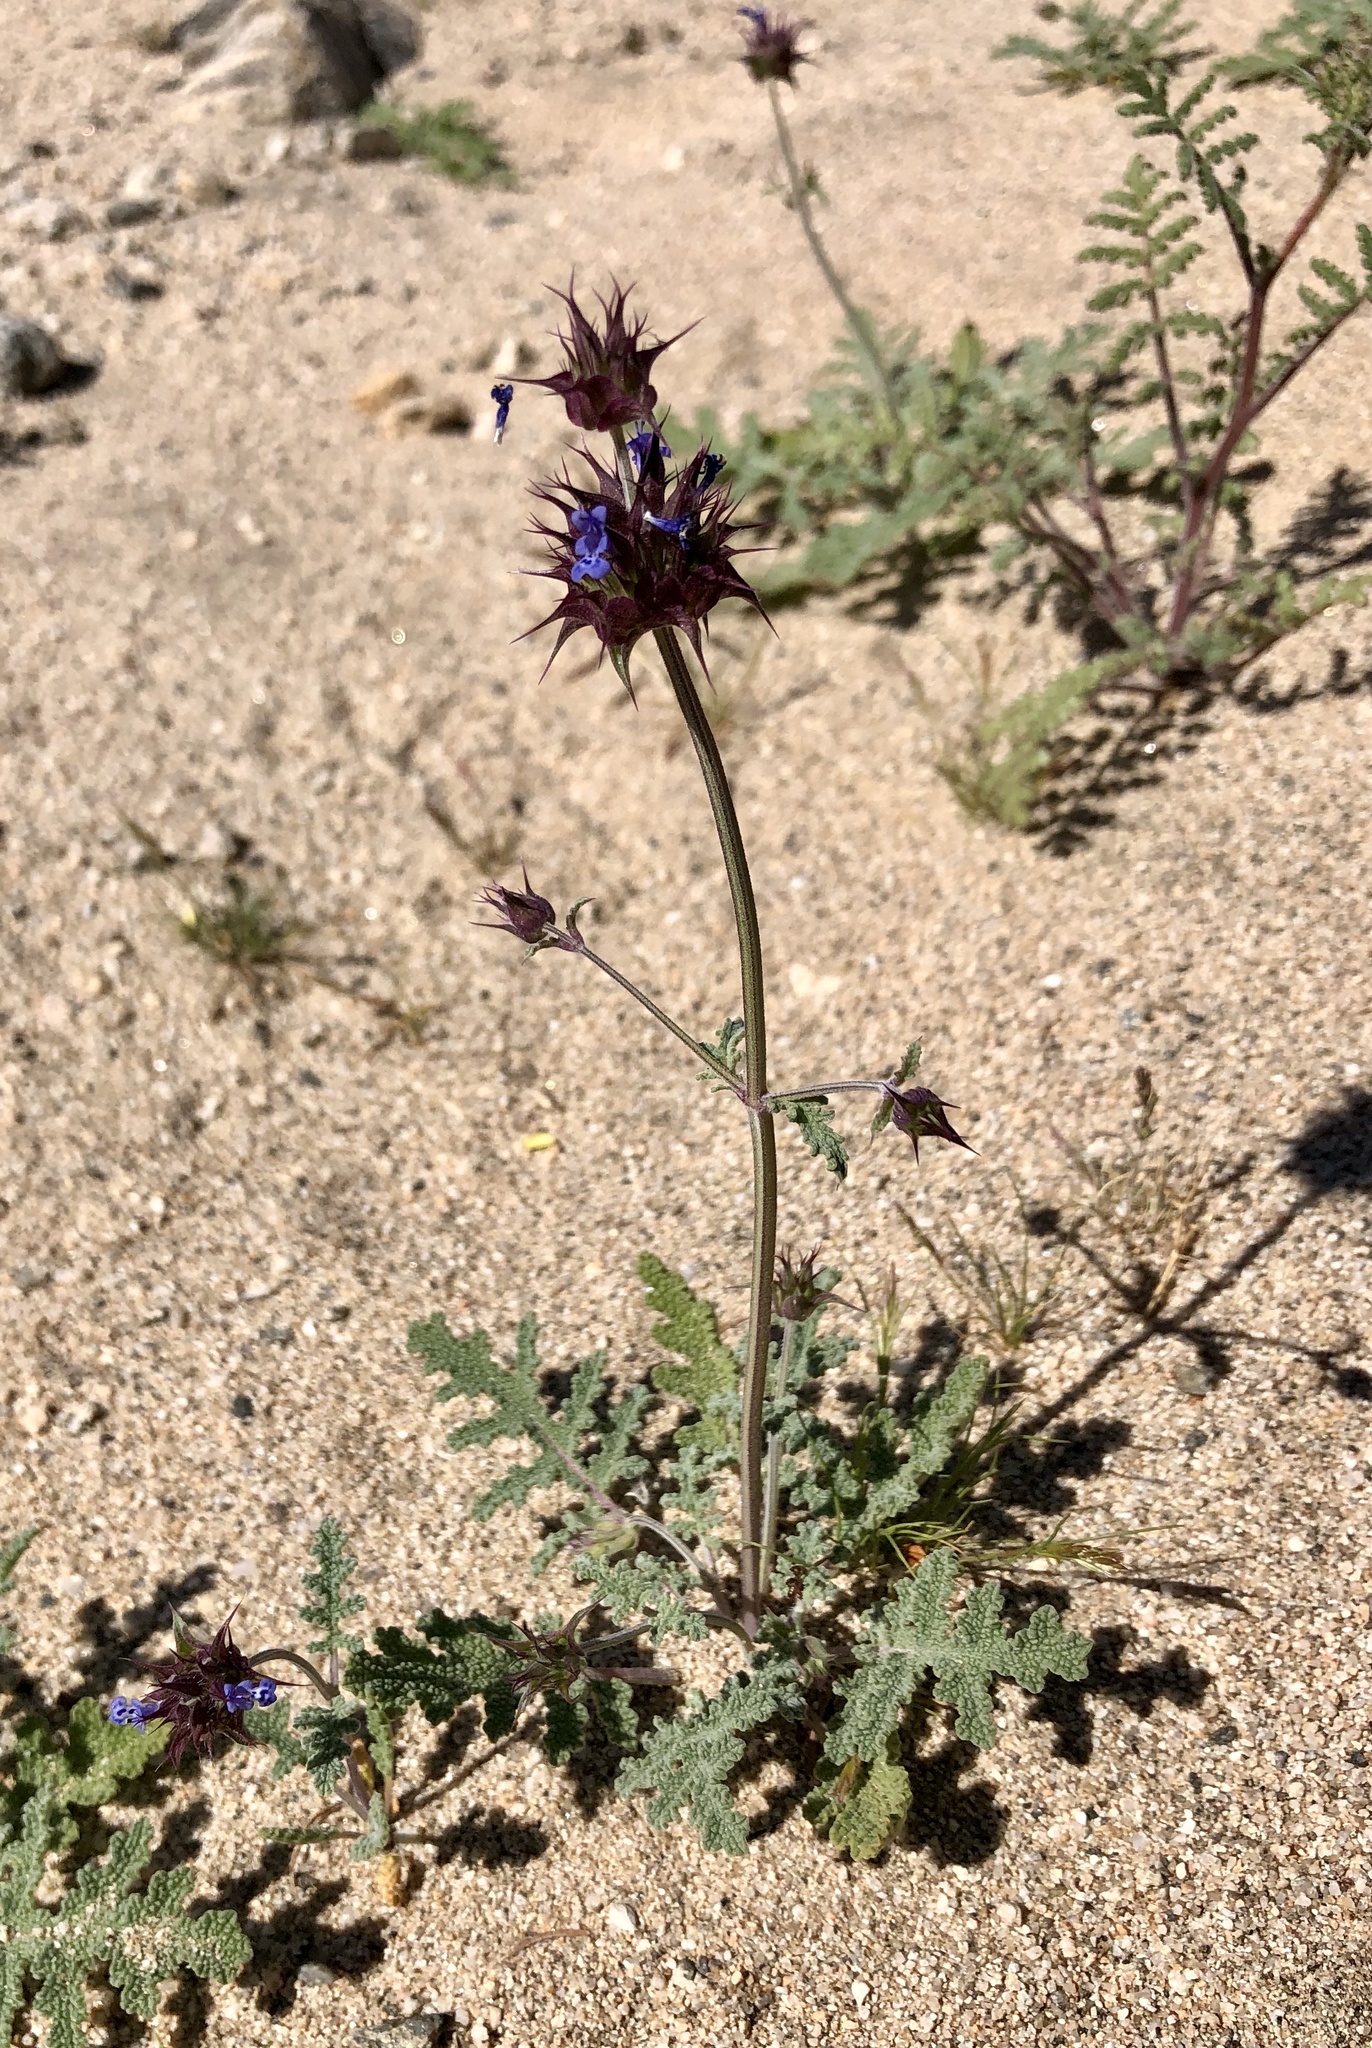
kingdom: Plantae
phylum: Tracheophyta
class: Magnoliopsida
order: Lamiales
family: Lamiaceae
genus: Salvia
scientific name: Salvia columbariae
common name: Chia
